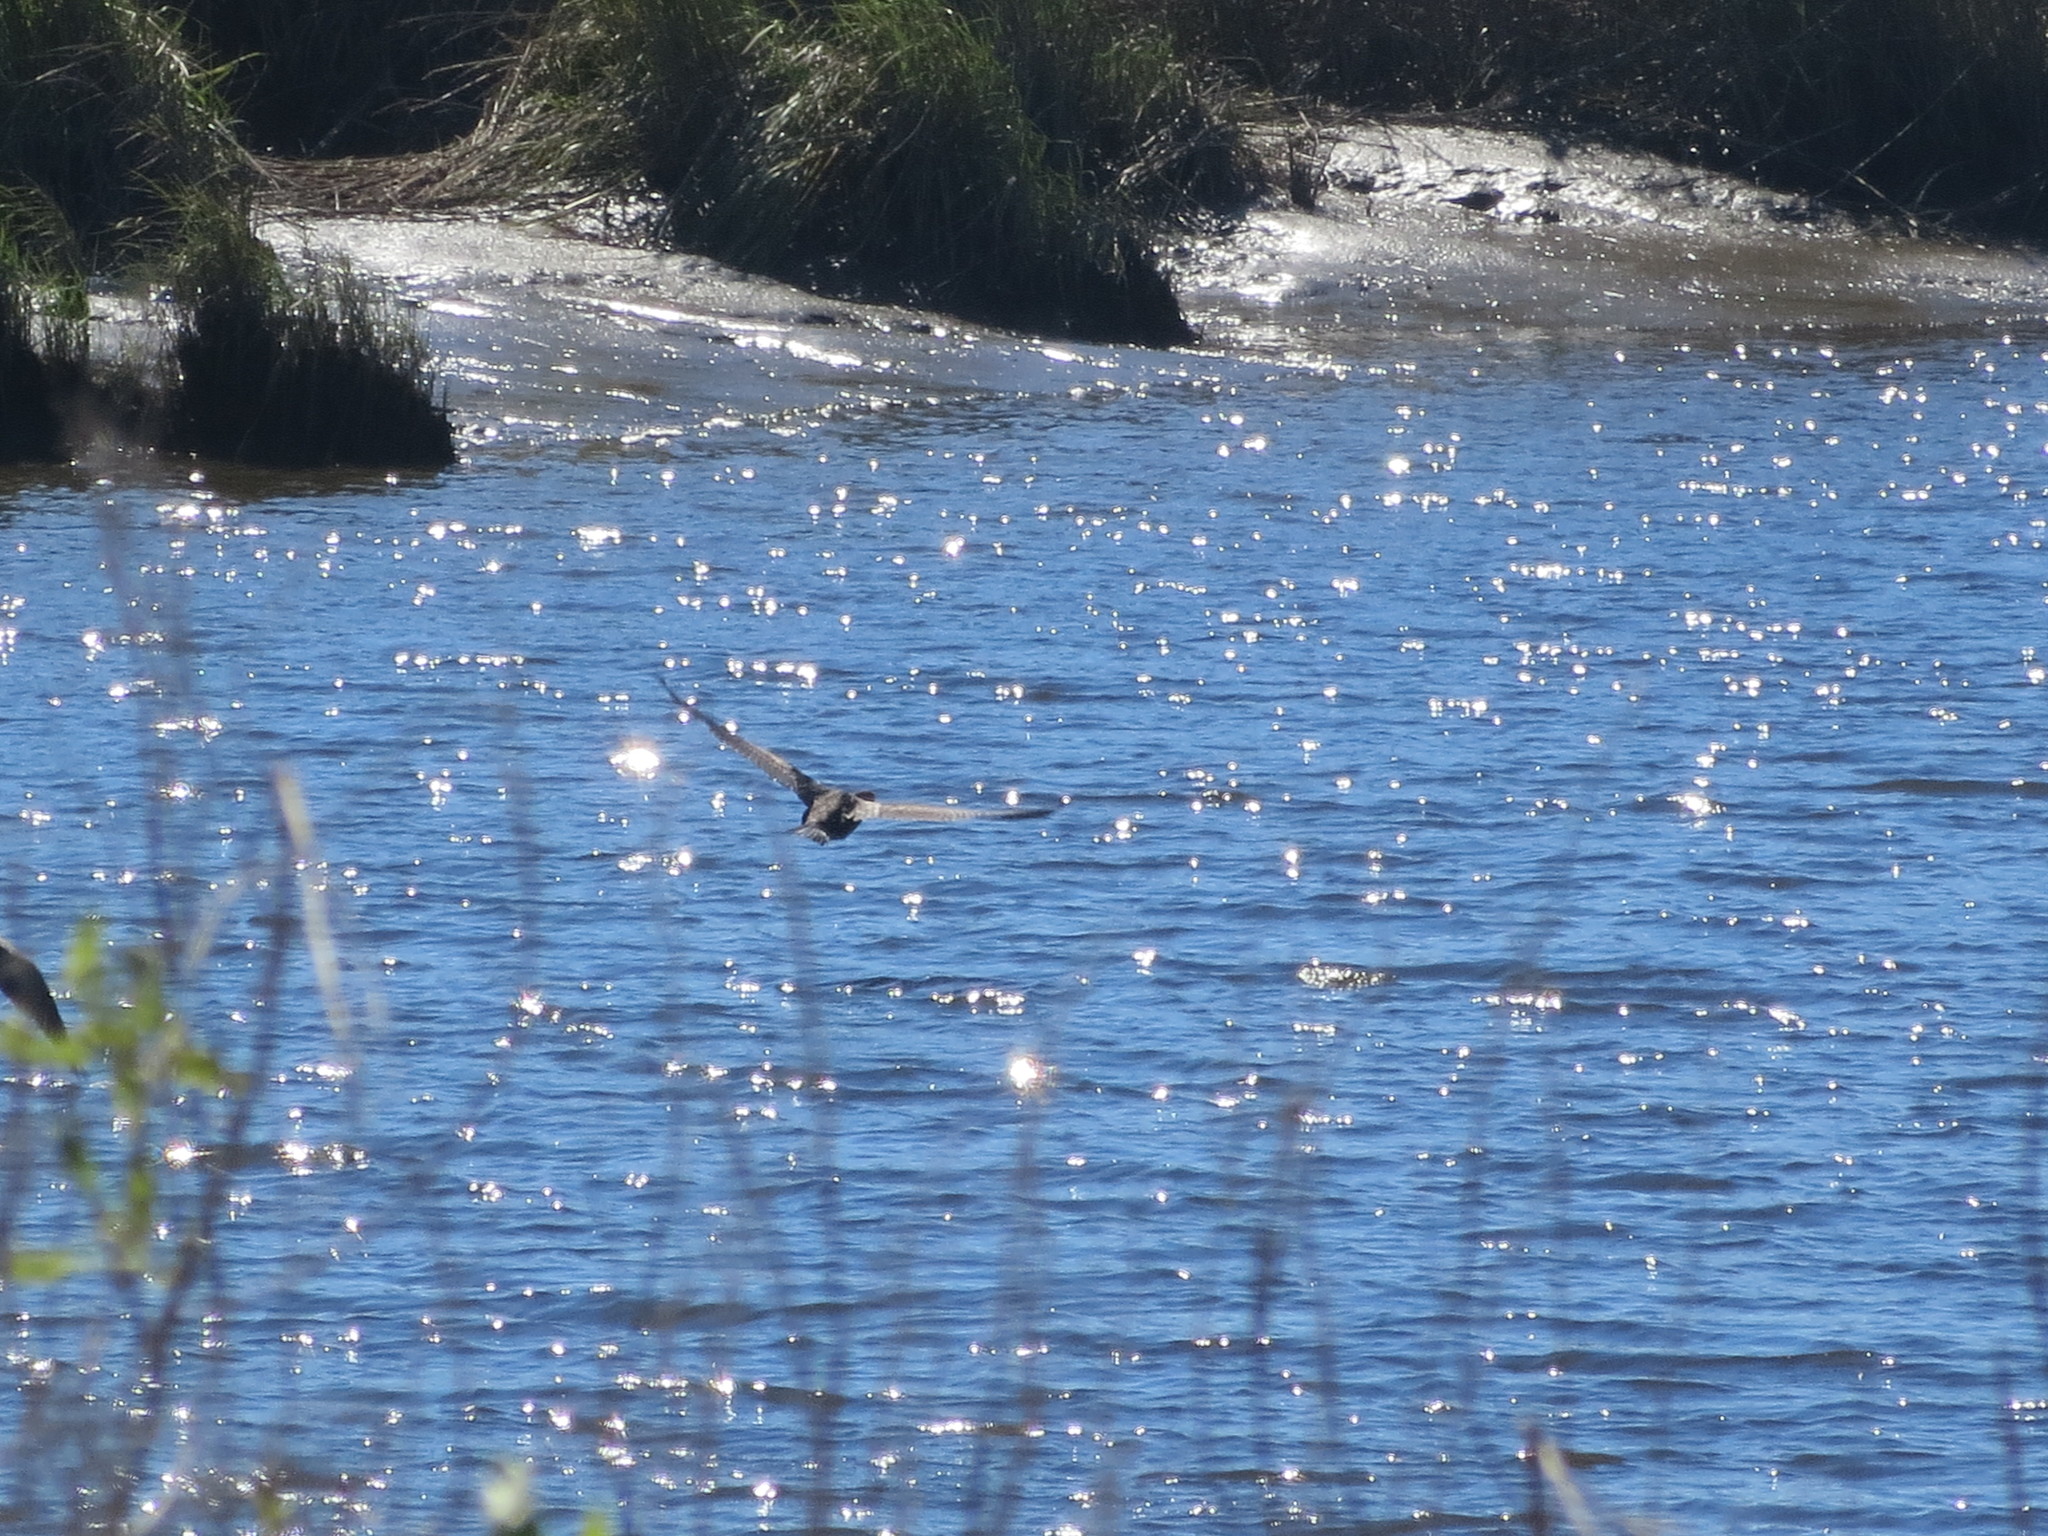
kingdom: Animalia
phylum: Chordata
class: Aves
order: Suliformes
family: Phalacrocoracidae
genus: Phalacrocorax
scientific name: Phalacrocorax auritus
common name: Double-crested cormorant
